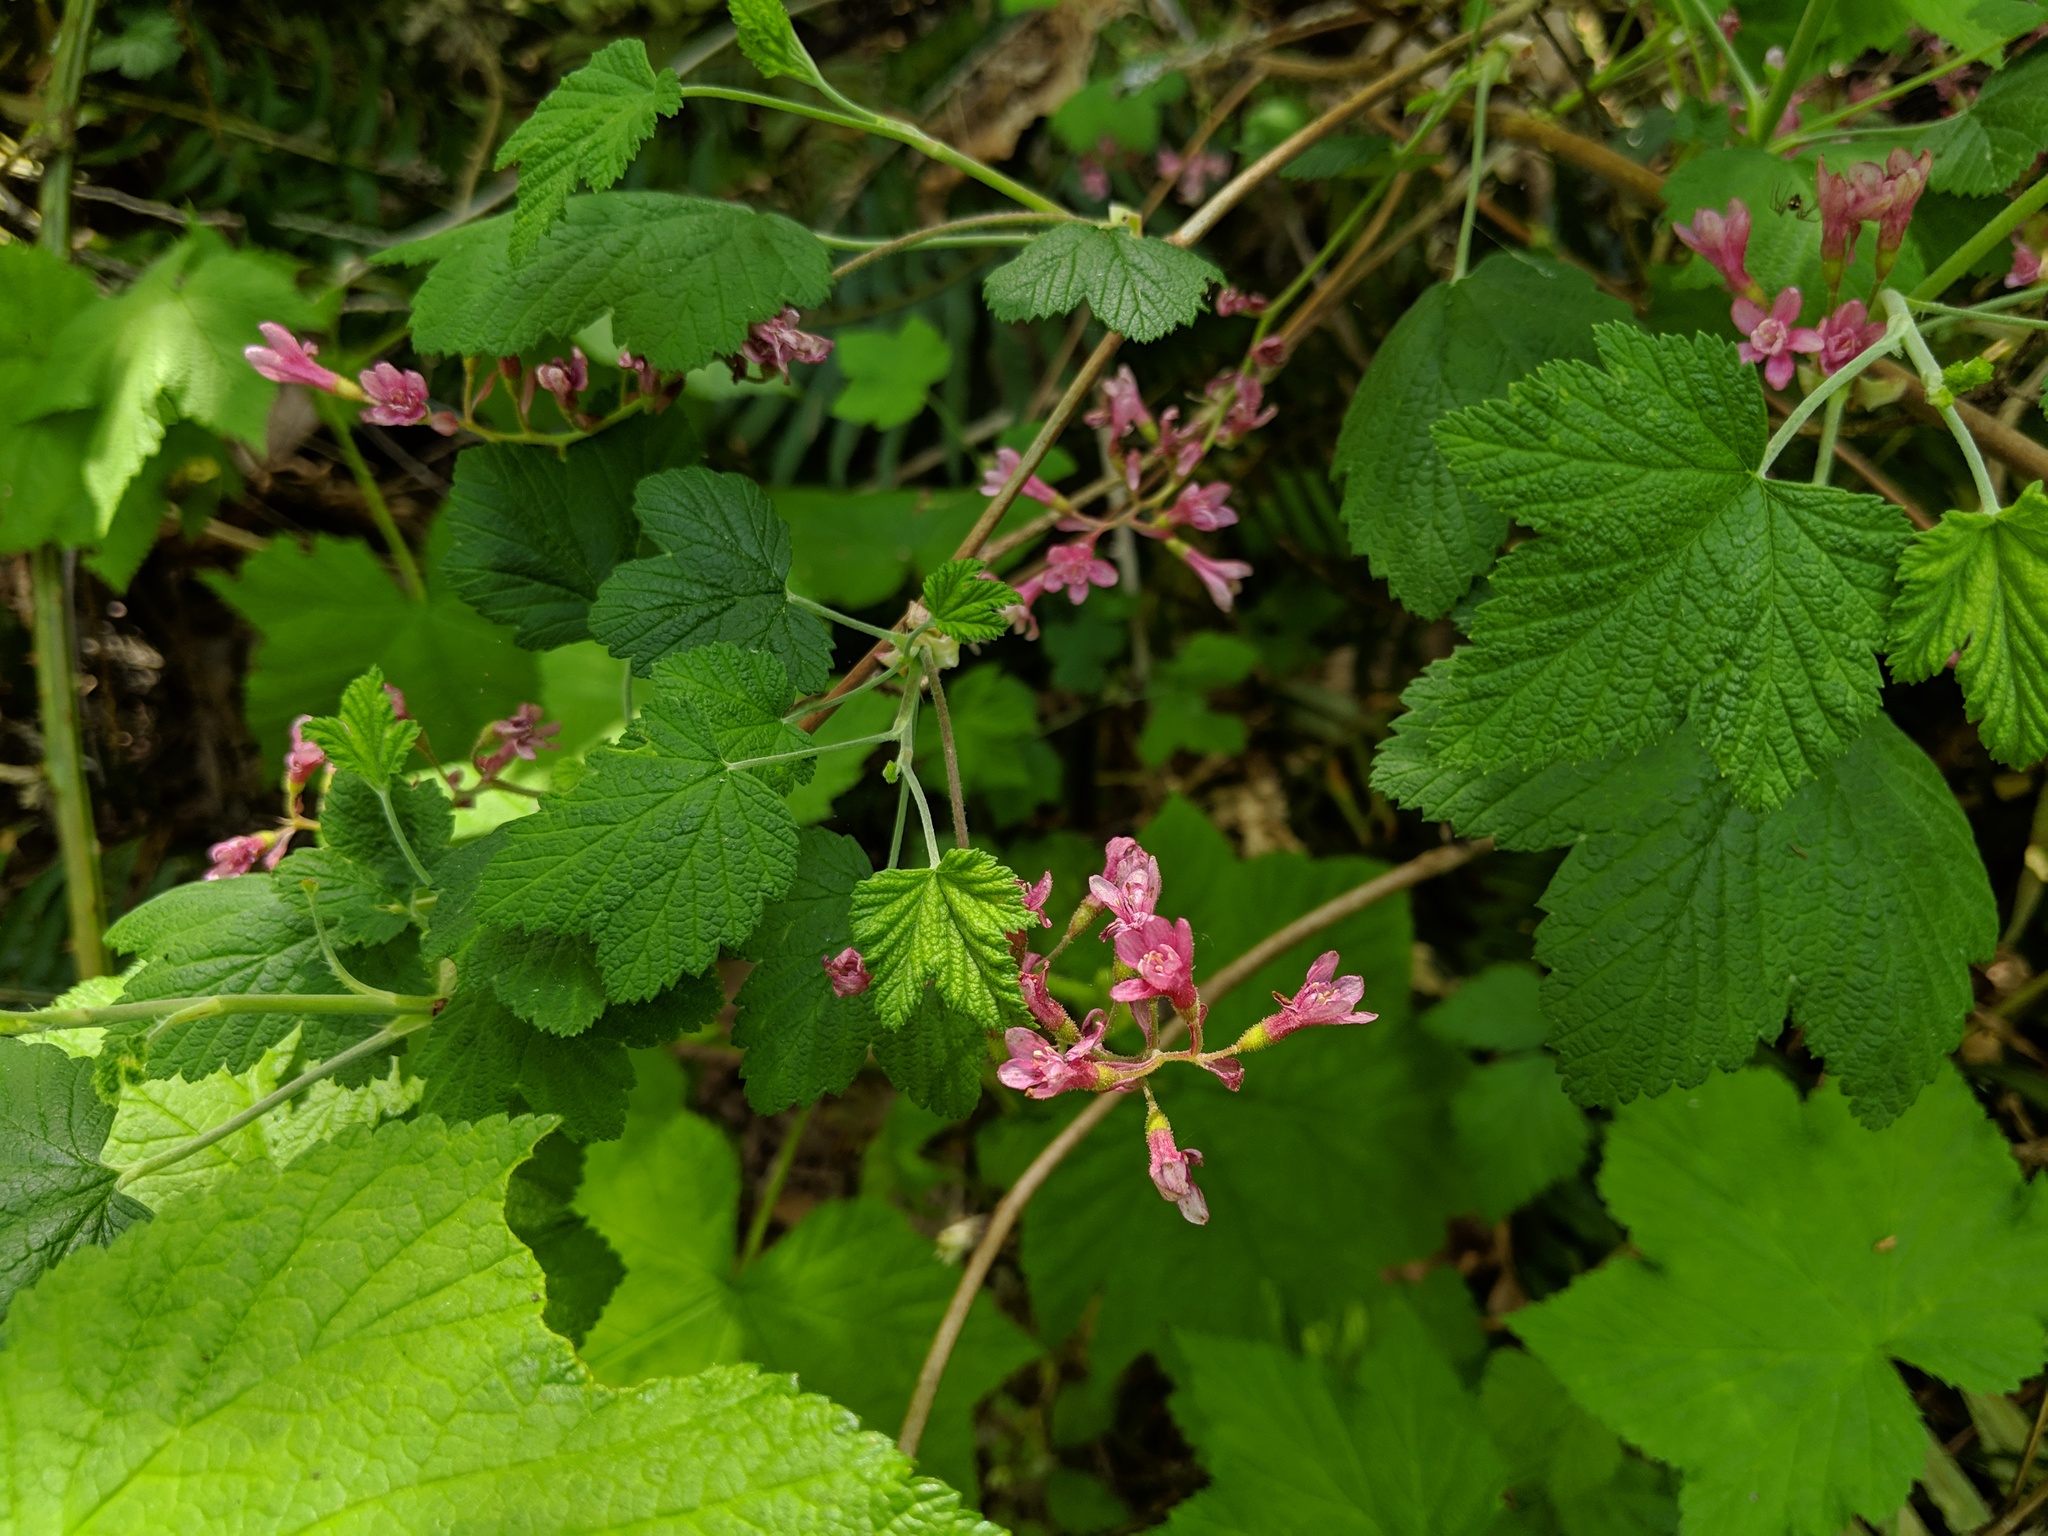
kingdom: Plantae
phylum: Tracheophyta
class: Magnoliopsida
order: Saxifragales
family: Grossulariaceae
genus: Ribes
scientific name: Ribes sanguineum
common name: Flowering currant
